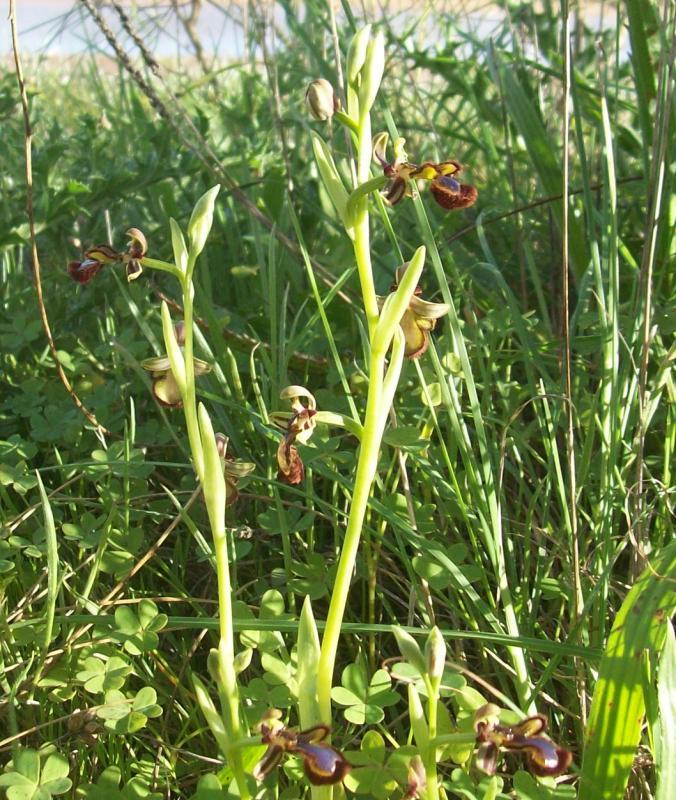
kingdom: Plantae
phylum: Tracheophyta
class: Liliopsida
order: Asparagales
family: Orchidaceae
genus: Ophrys
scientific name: Ophrys speculum
